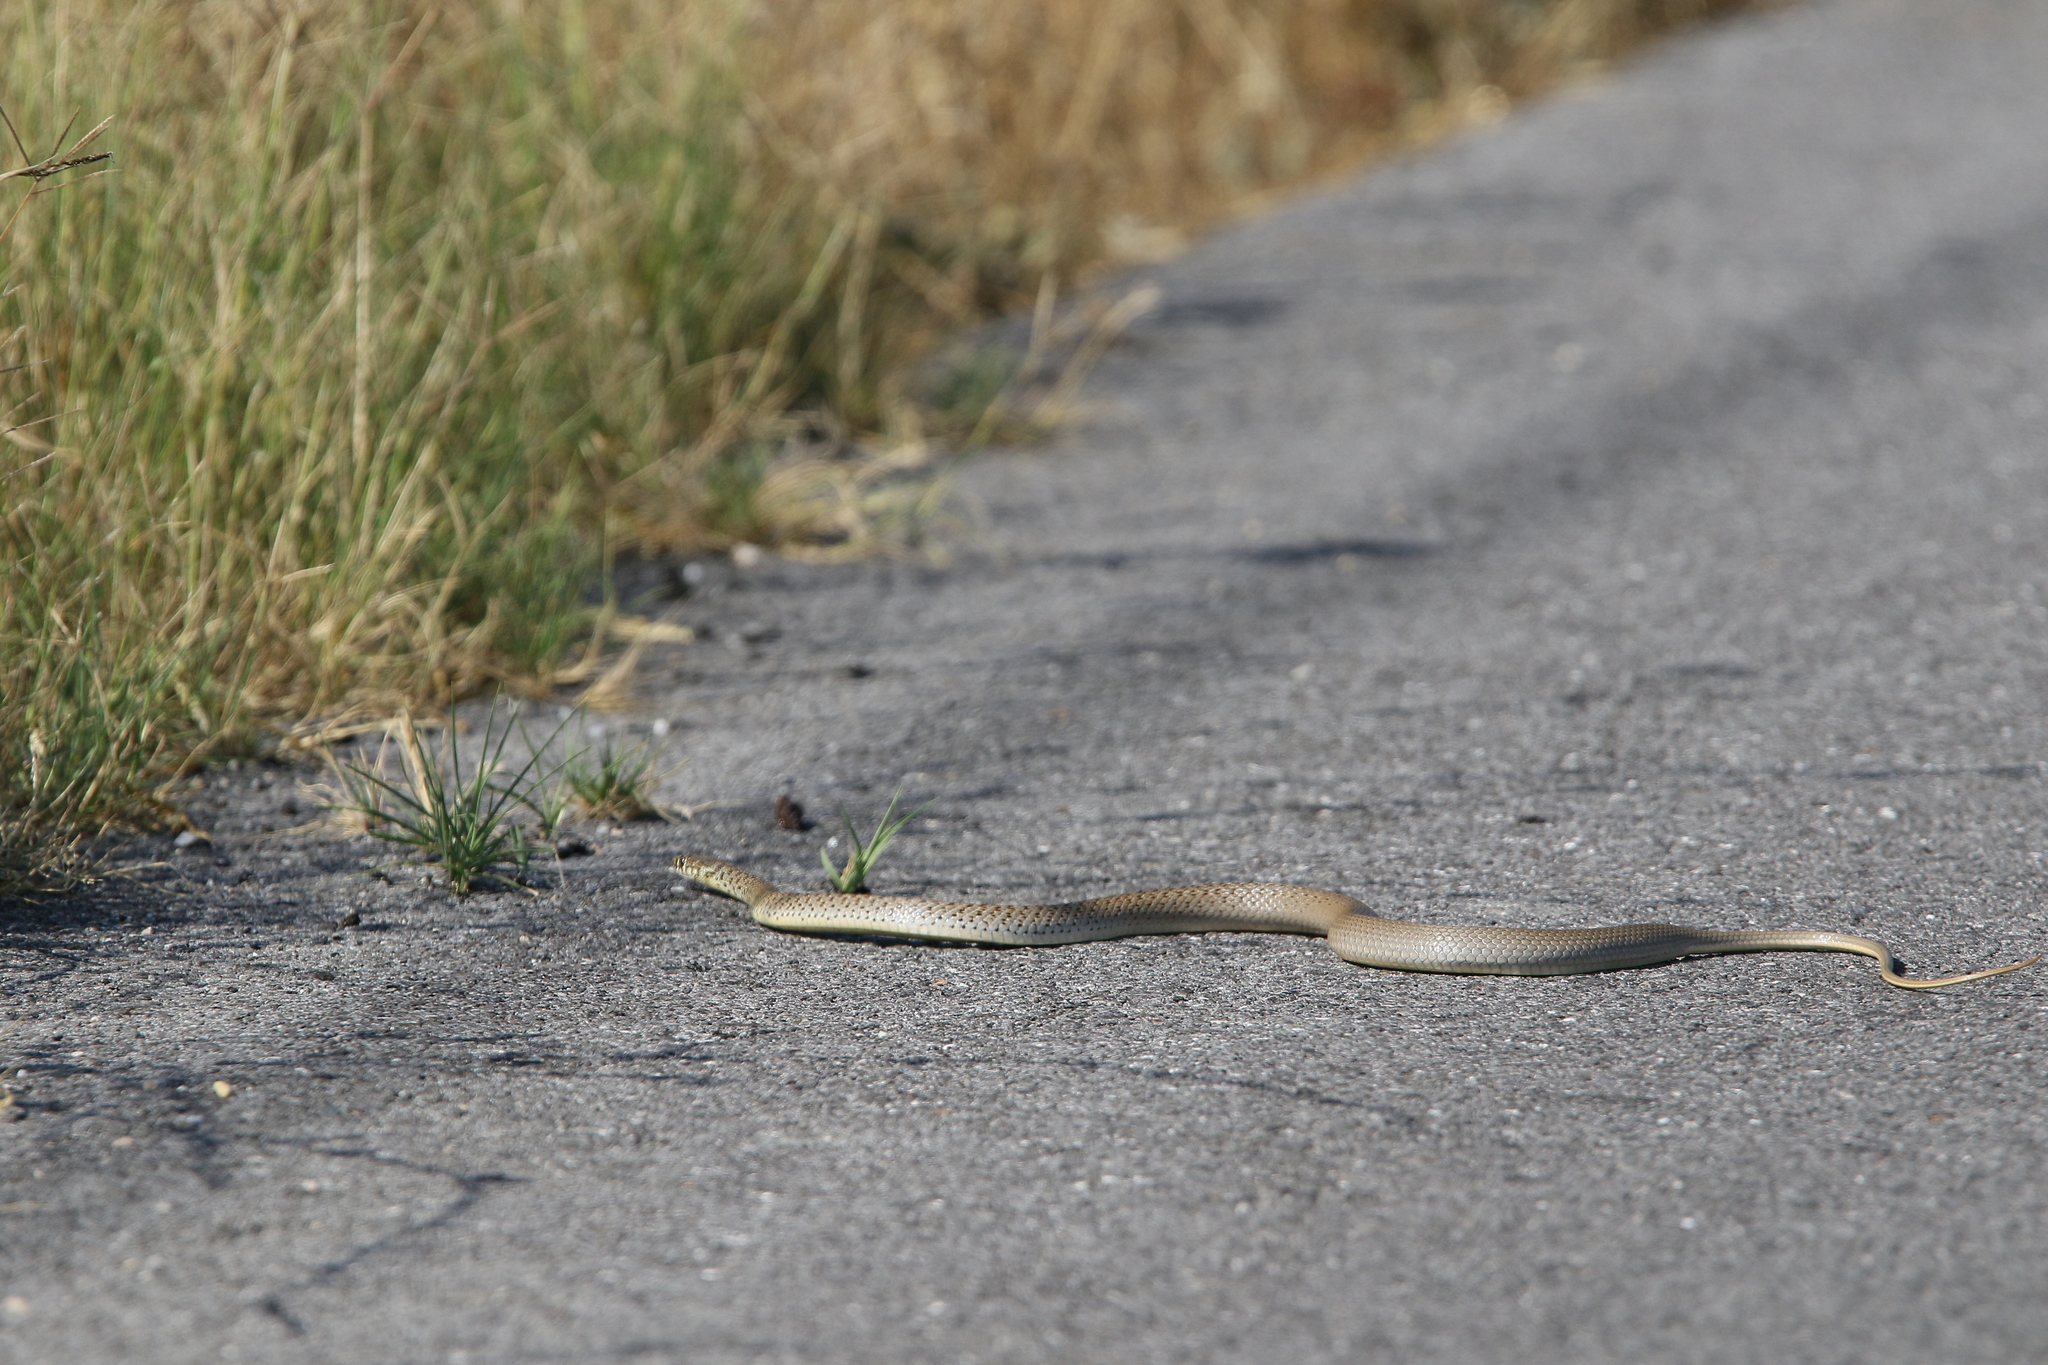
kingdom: Animalia
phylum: Chordata
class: Squamata
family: Colubridae
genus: Hierophis
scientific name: Hierophis gemonensis
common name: Balkan whip snake
